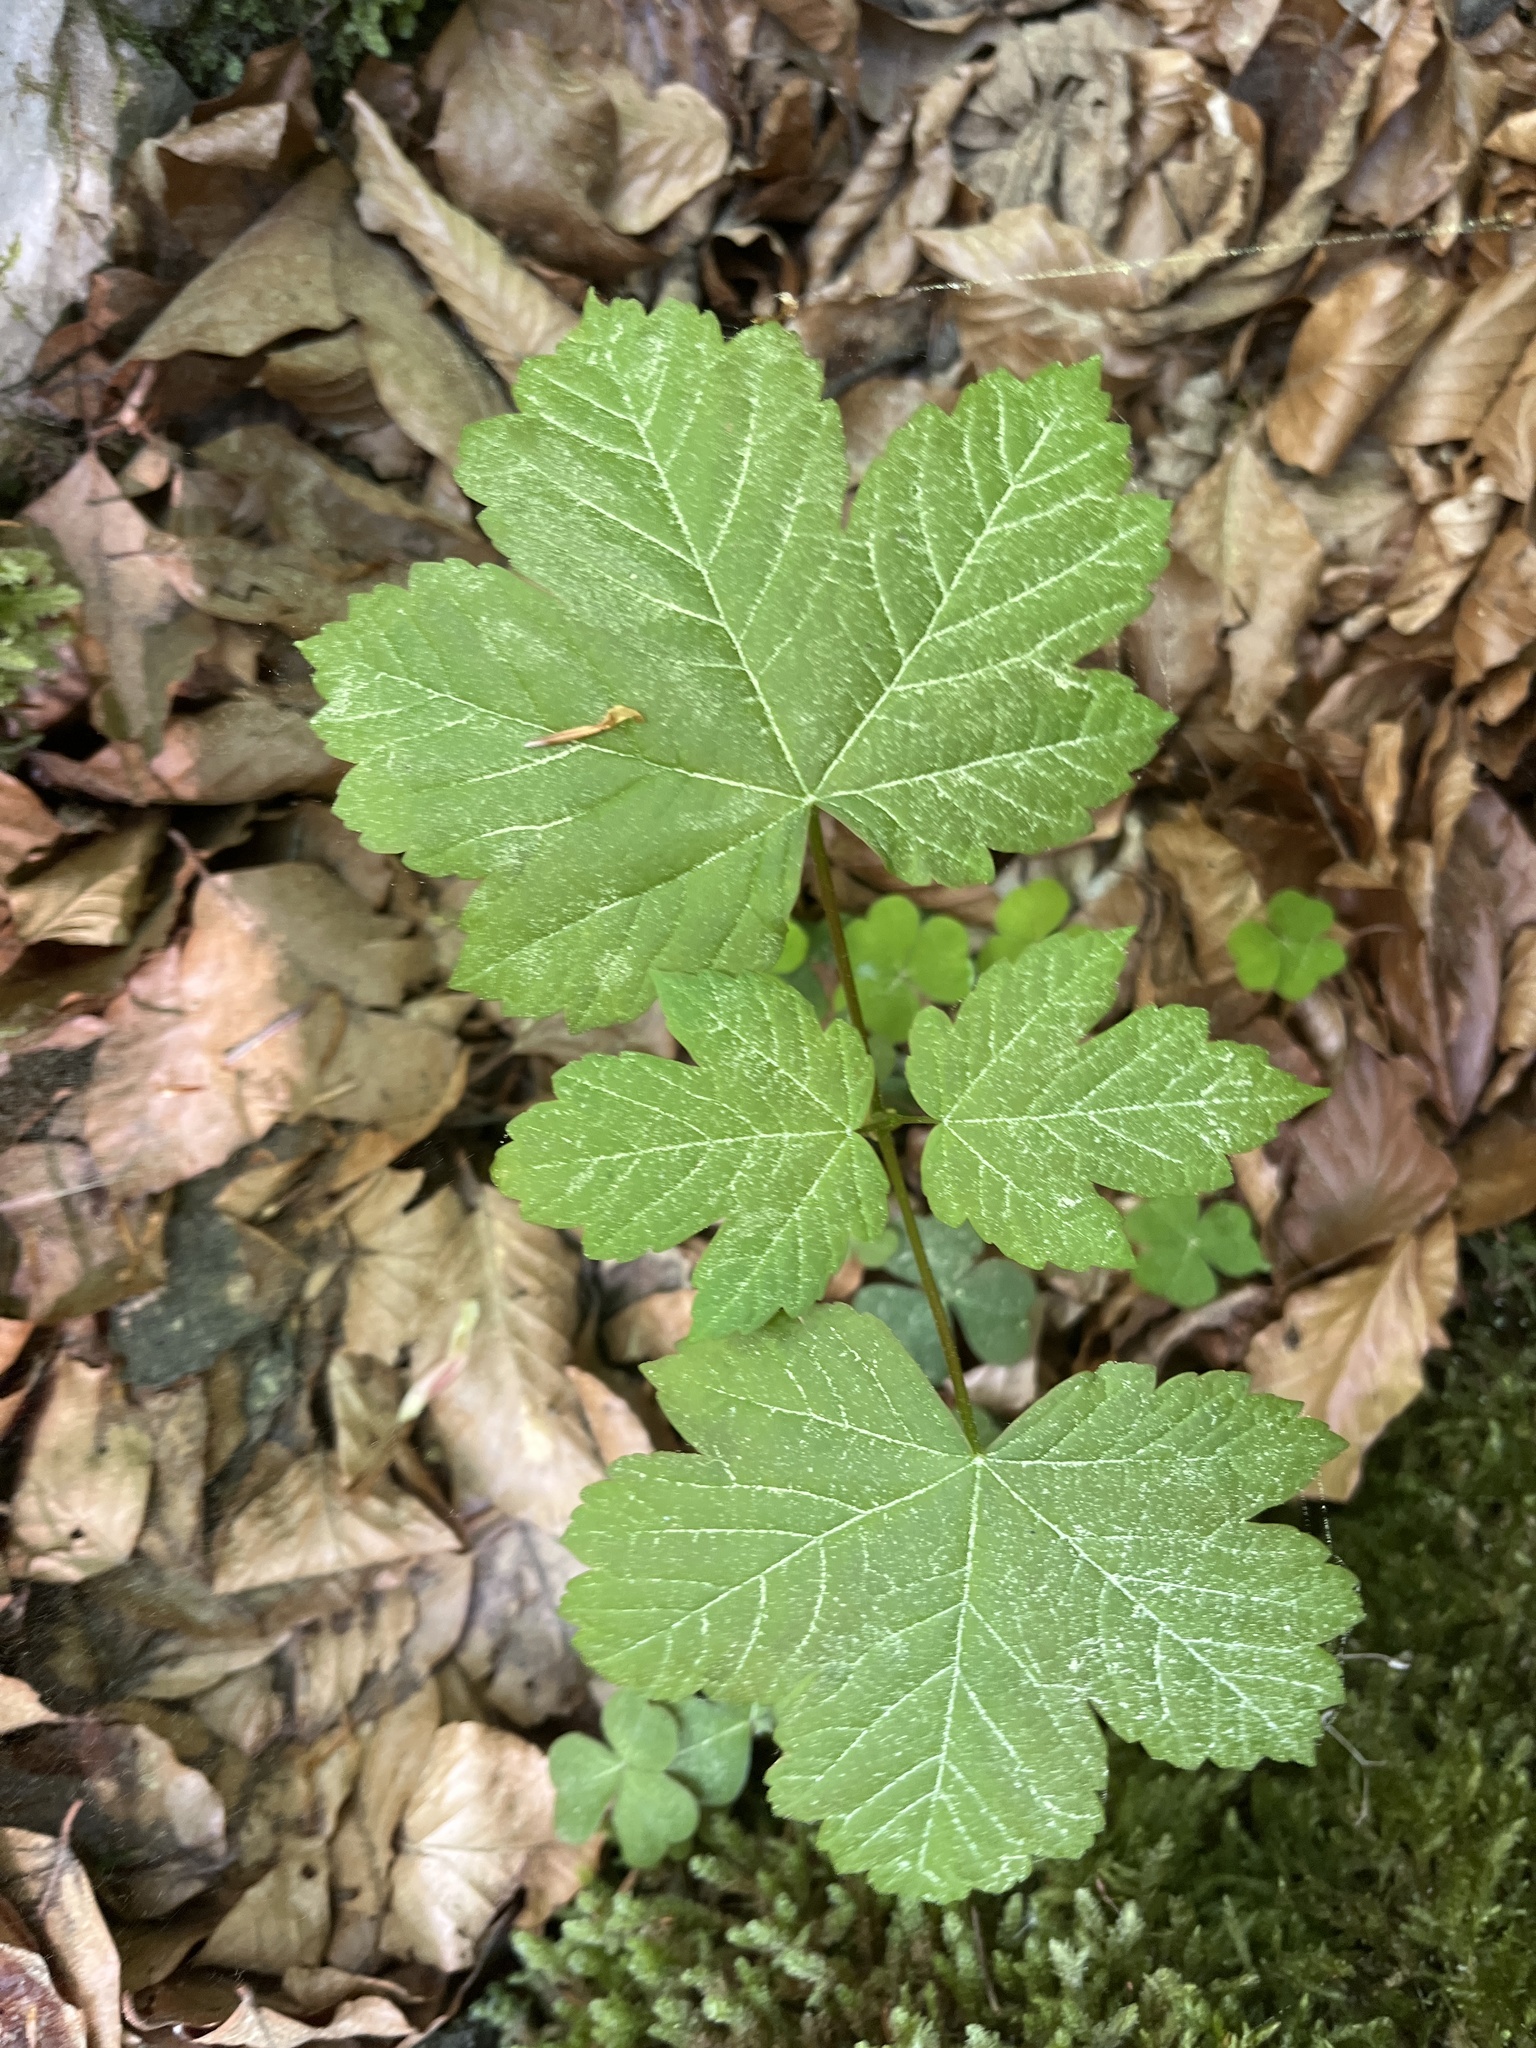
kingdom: Plantae
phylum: Tracheophyta
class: Magnoliopsida
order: Sapindales
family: Sapindaceae
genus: Acer
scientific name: Acer pseudoplatanus
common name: Sycamore
